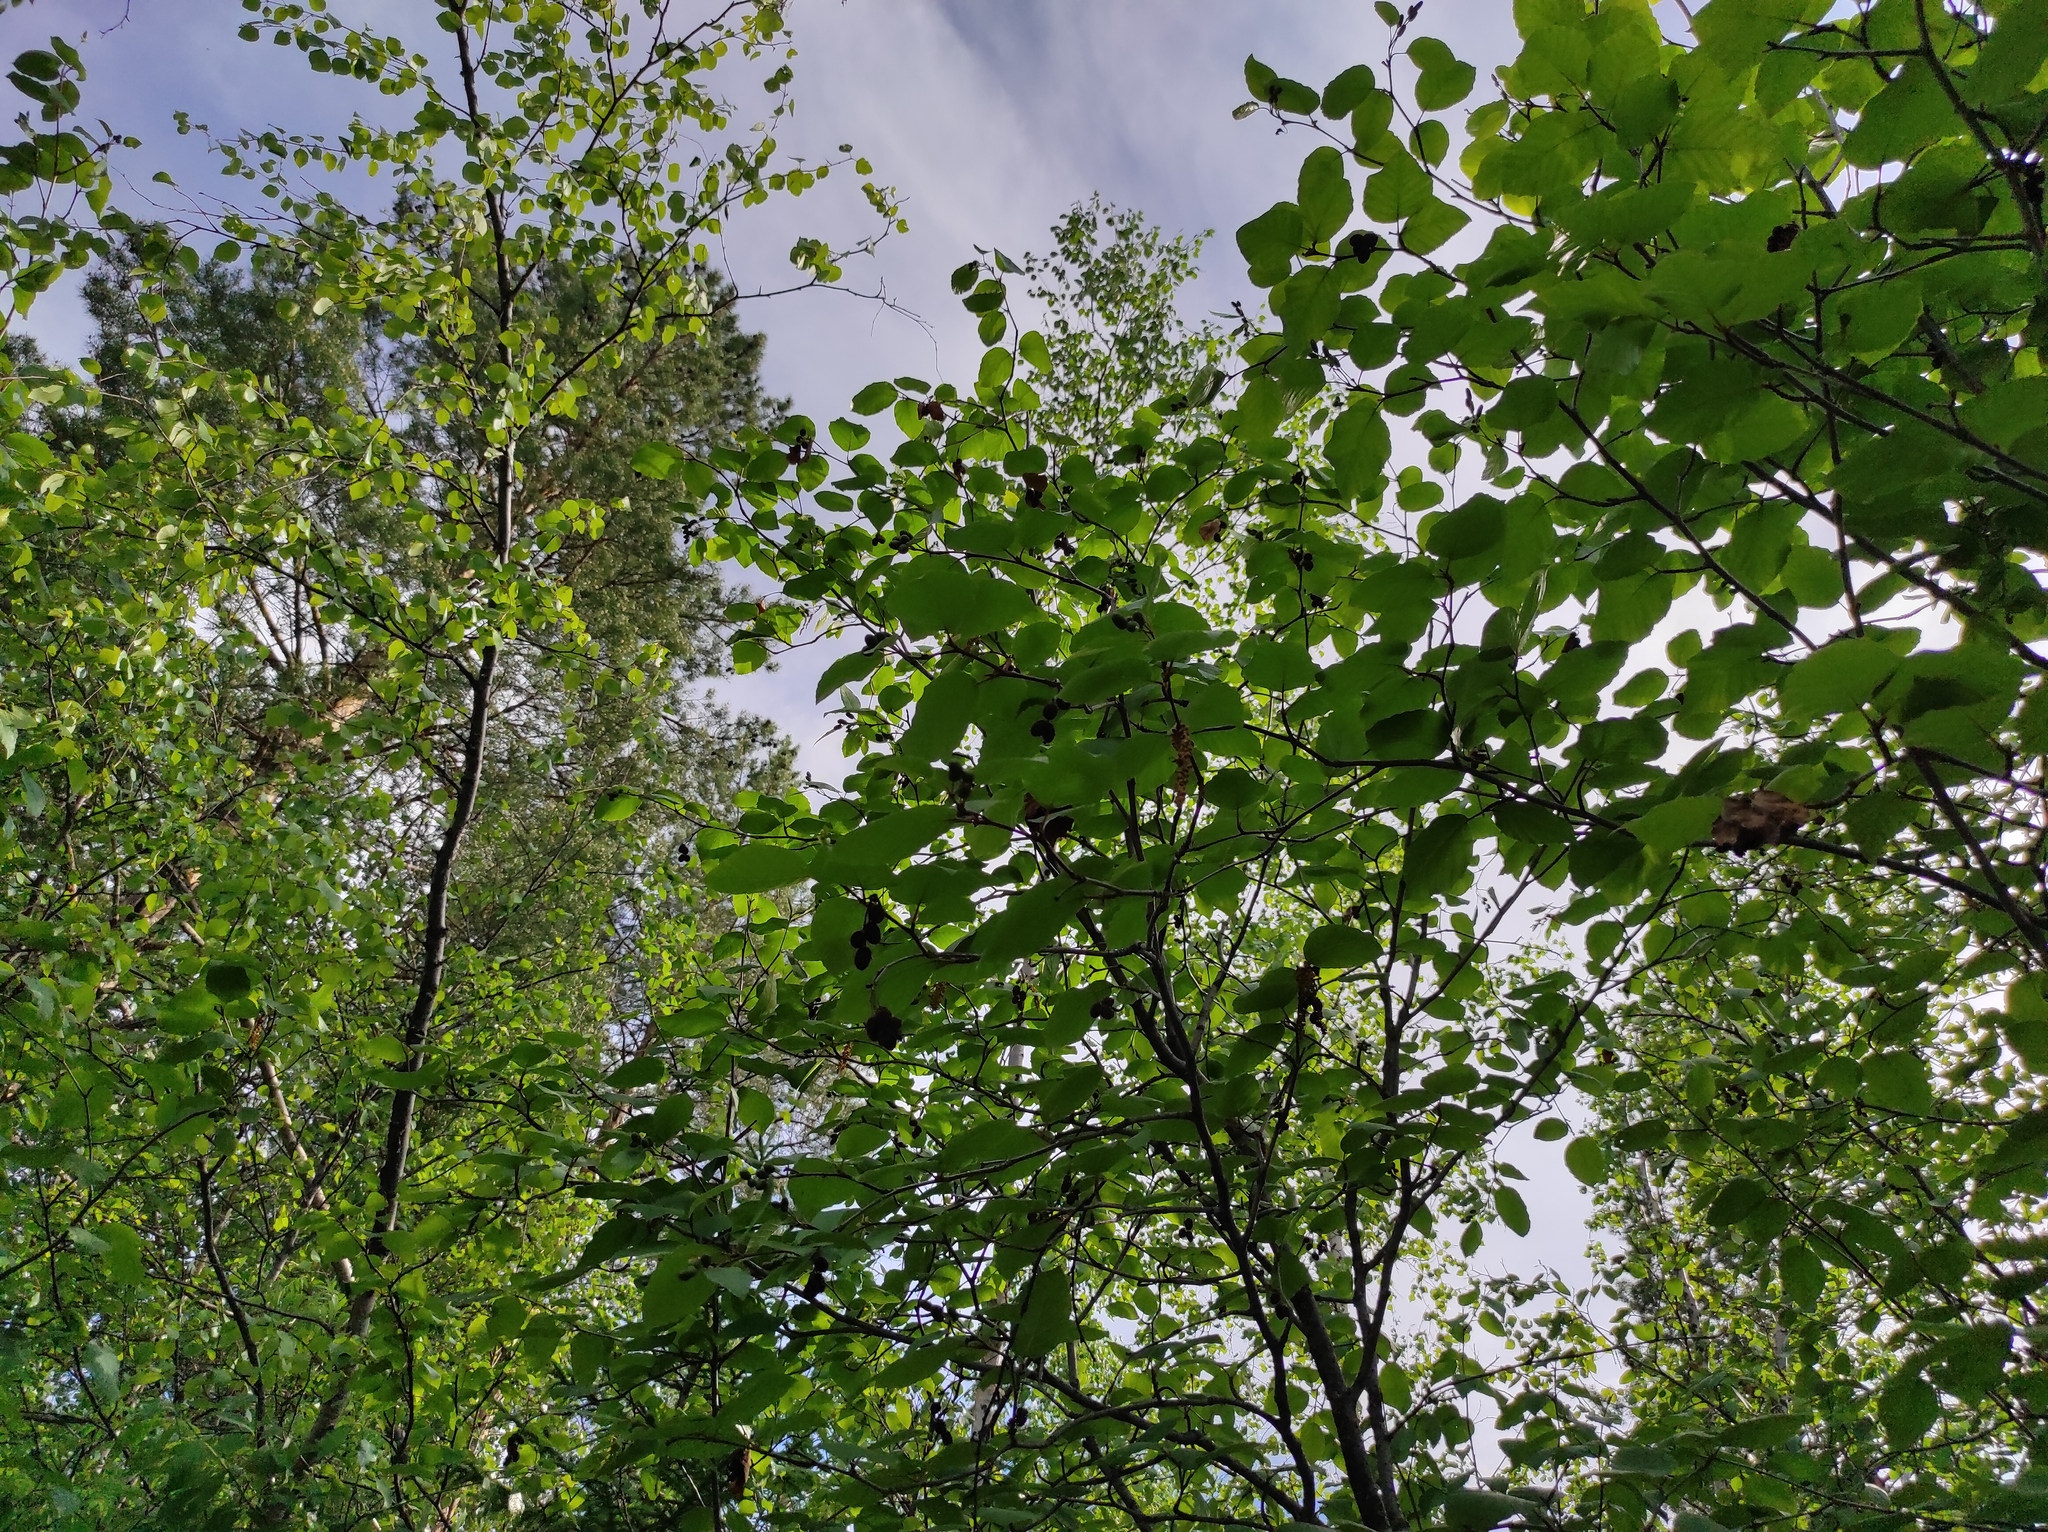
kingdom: Plantae
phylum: Tracheophyta
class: Magnoliopsida
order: Fagales
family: Betulaceae
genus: Alnus
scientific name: Alnus alnobetula
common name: Green alder
